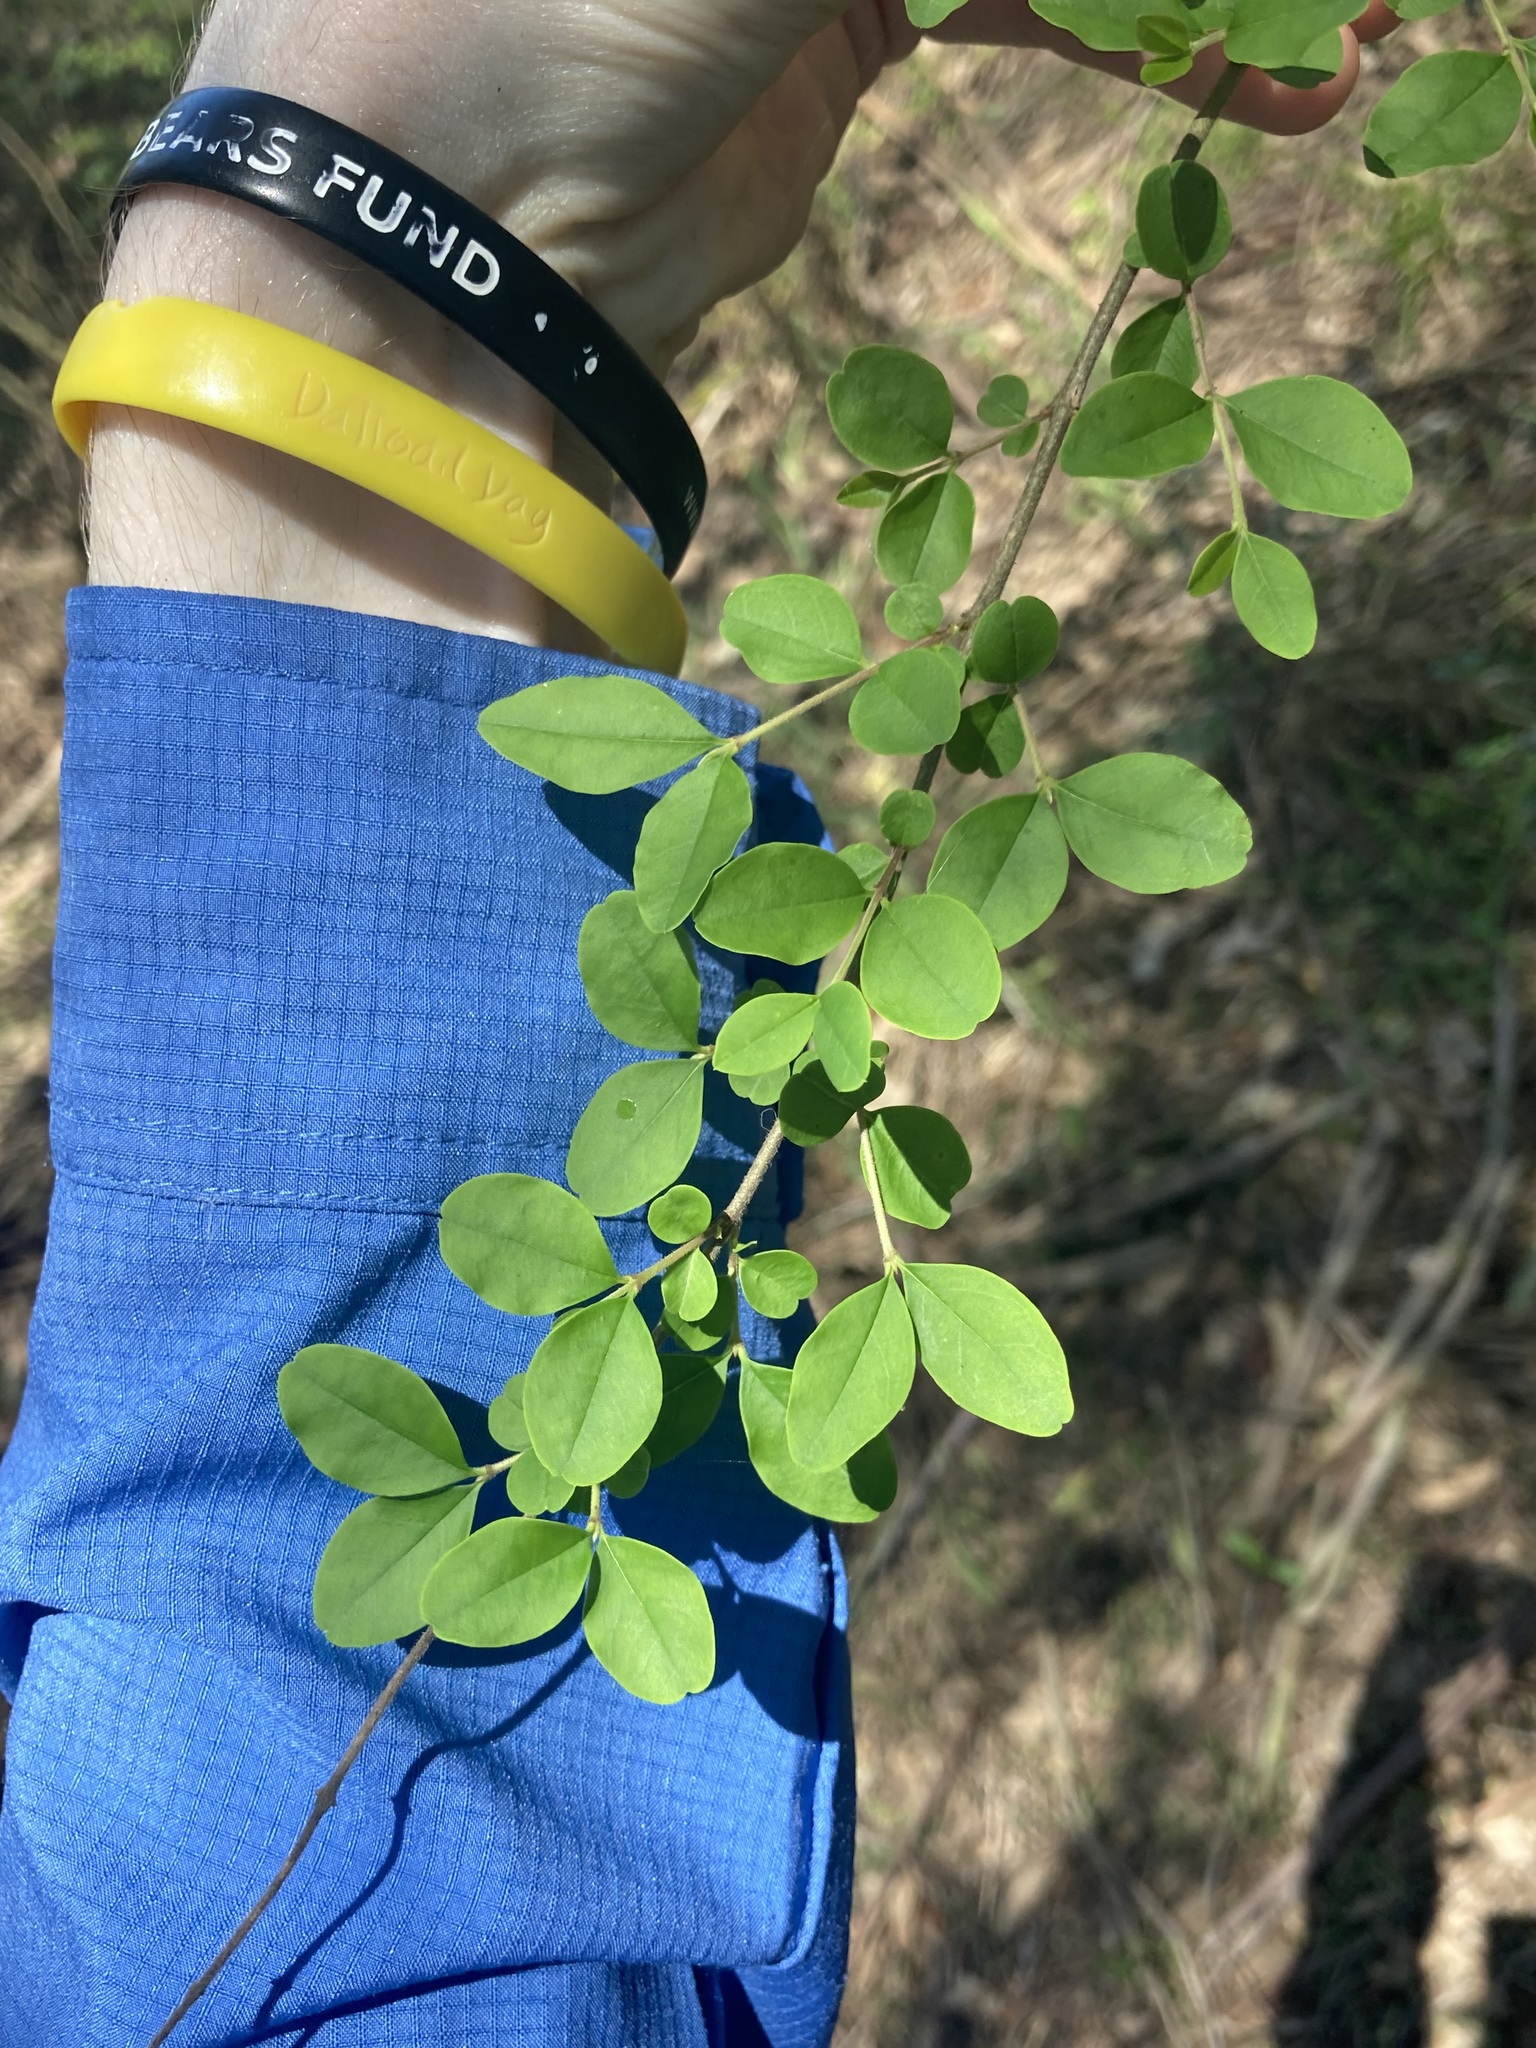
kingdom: Plantae
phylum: Tracheophyta
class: Magnoliopsida
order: Lamiales
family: Oleaceae
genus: Ligustrum
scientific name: Ligustrum sinense
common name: Chinese privet
